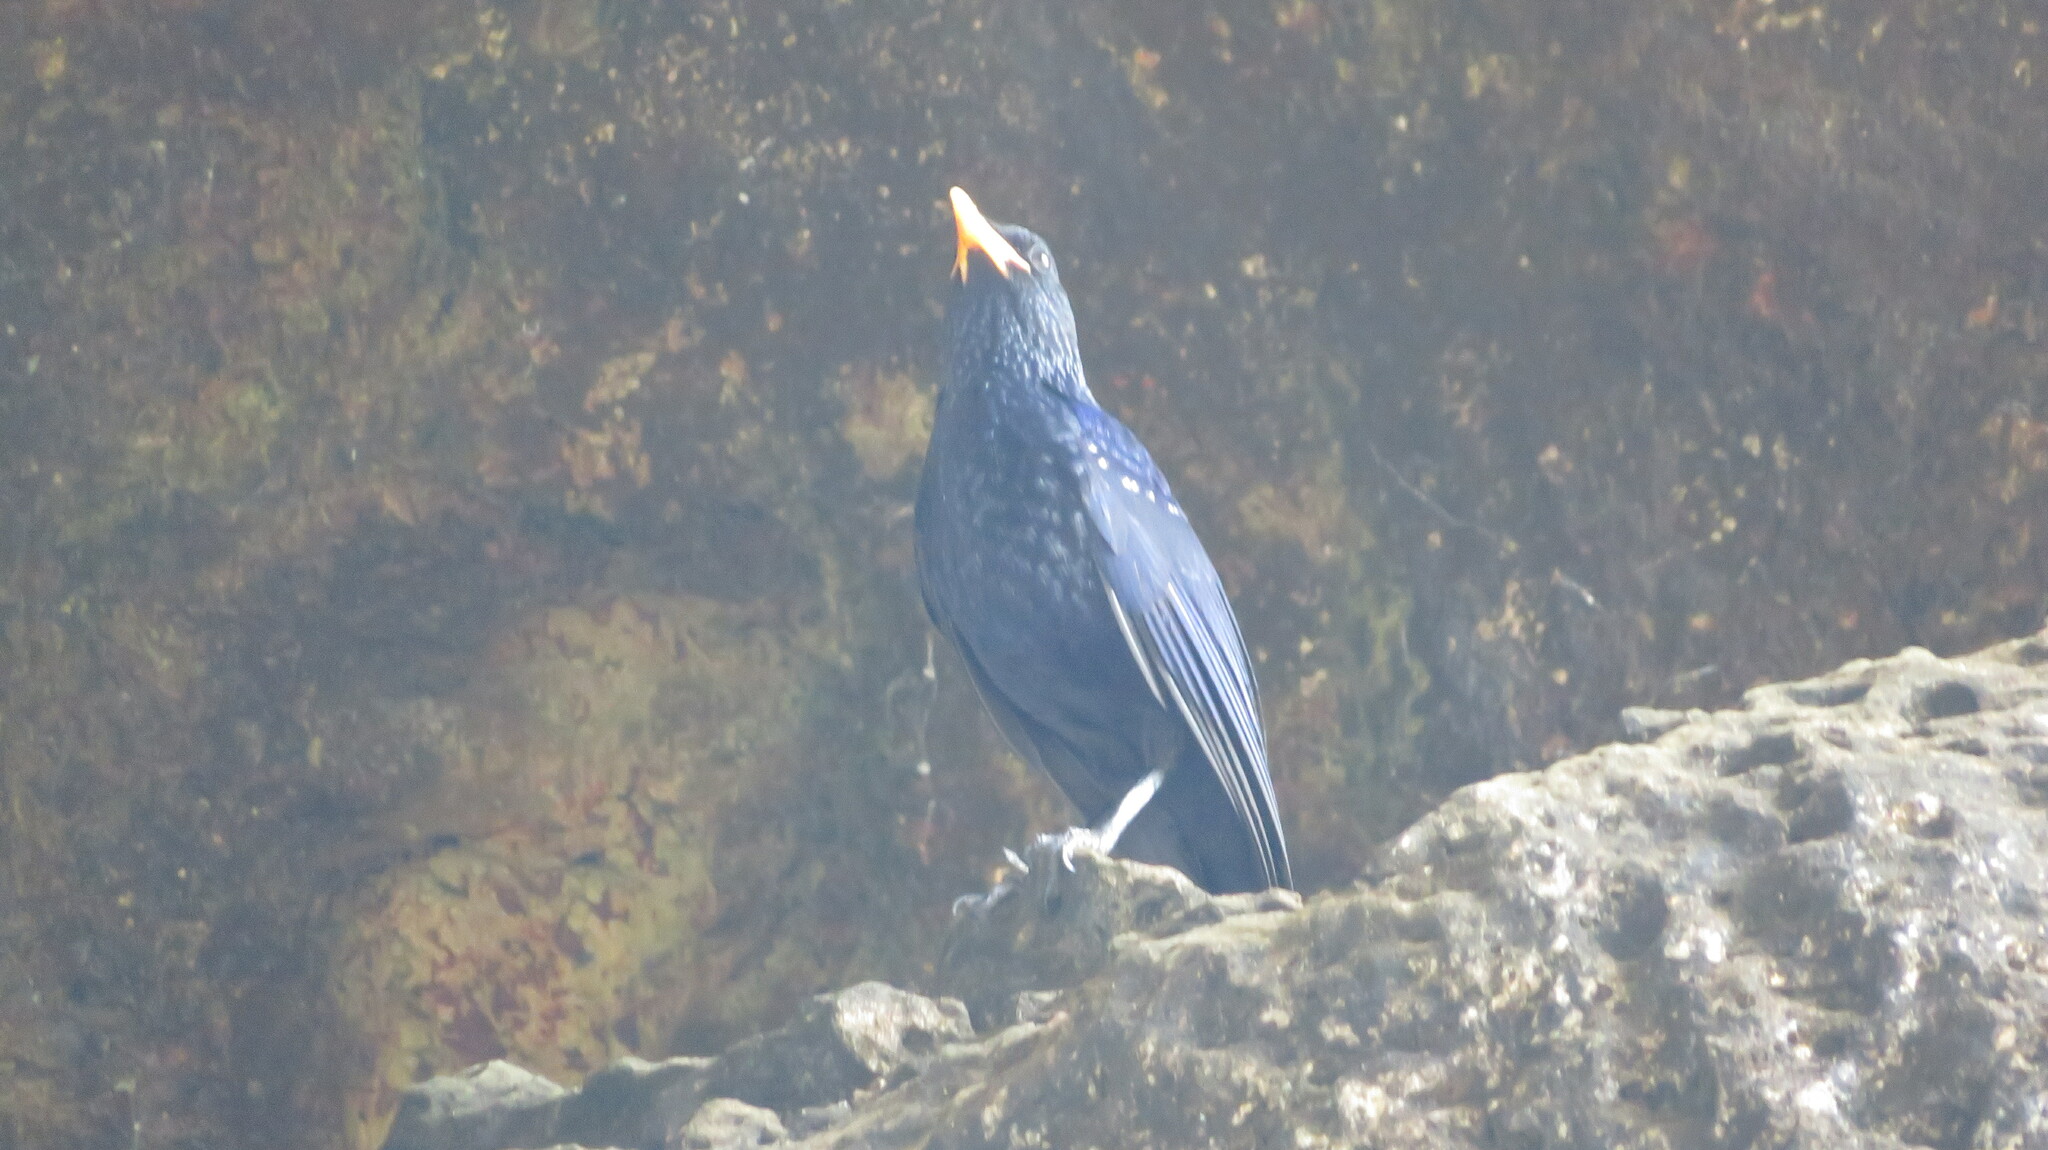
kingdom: Animalia
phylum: Chordata
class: Aves
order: Passeriformes
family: Muscicapidae
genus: Myophonus
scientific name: Myophonus caeruleus
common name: Blue whistling-thrush
